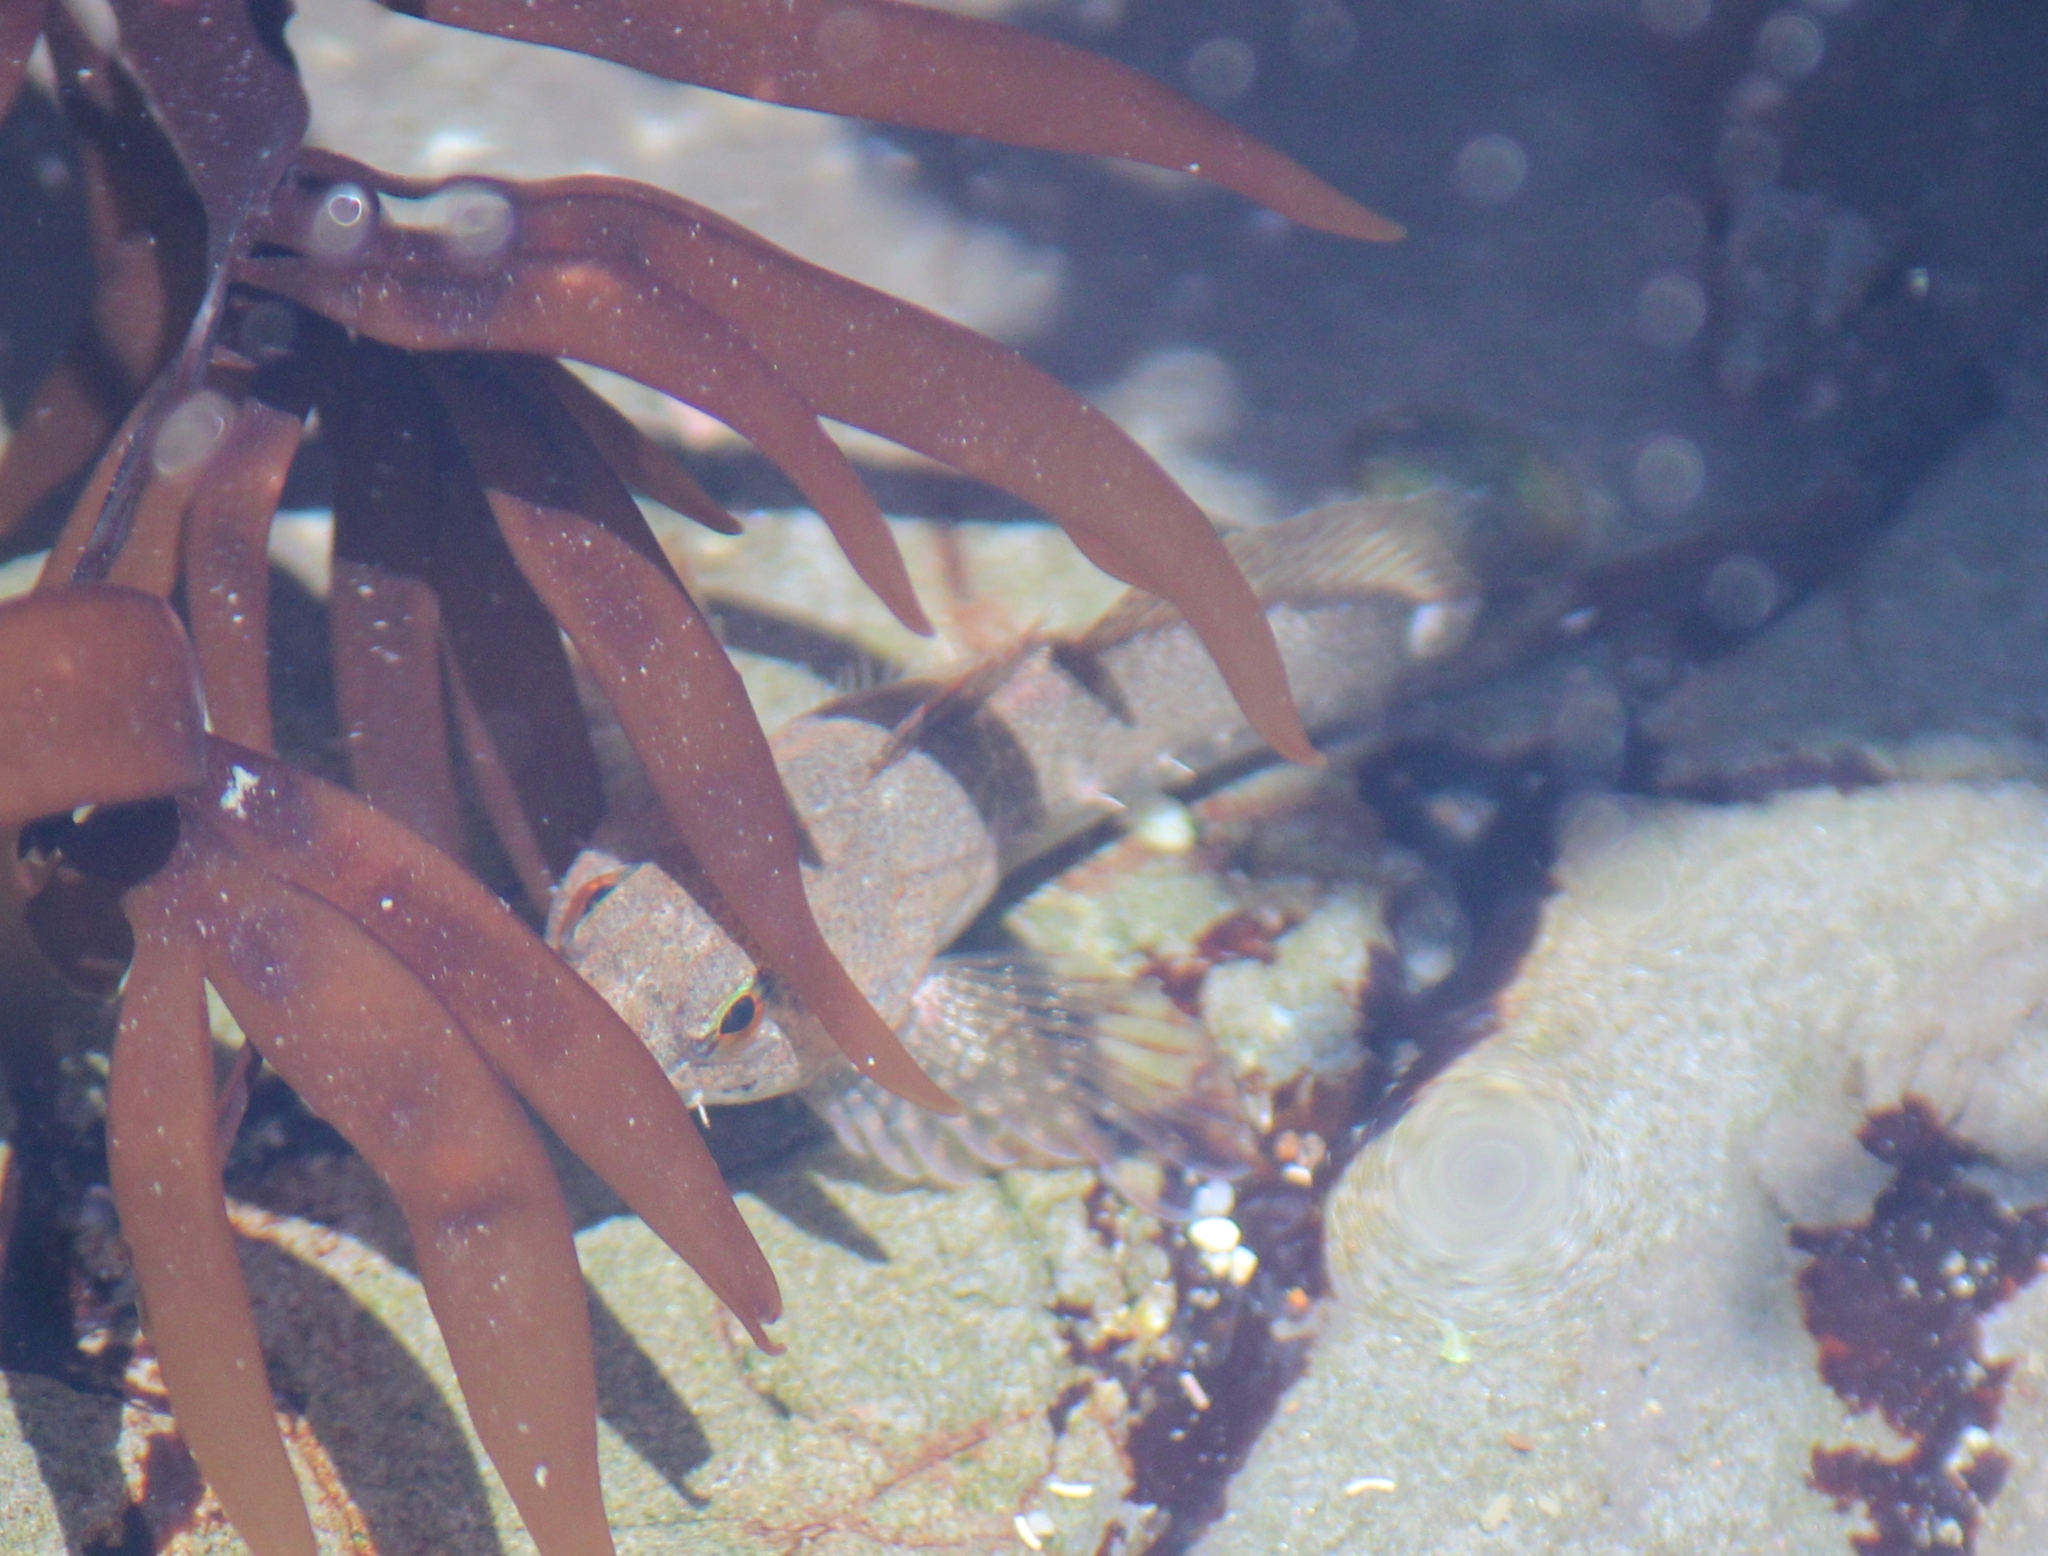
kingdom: Animalia
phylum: Chordata
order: Scorpaeniformes
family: Cottidae
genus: Oligocottus
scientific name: Oligocottus maculosus
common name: Tidepool sculpin
